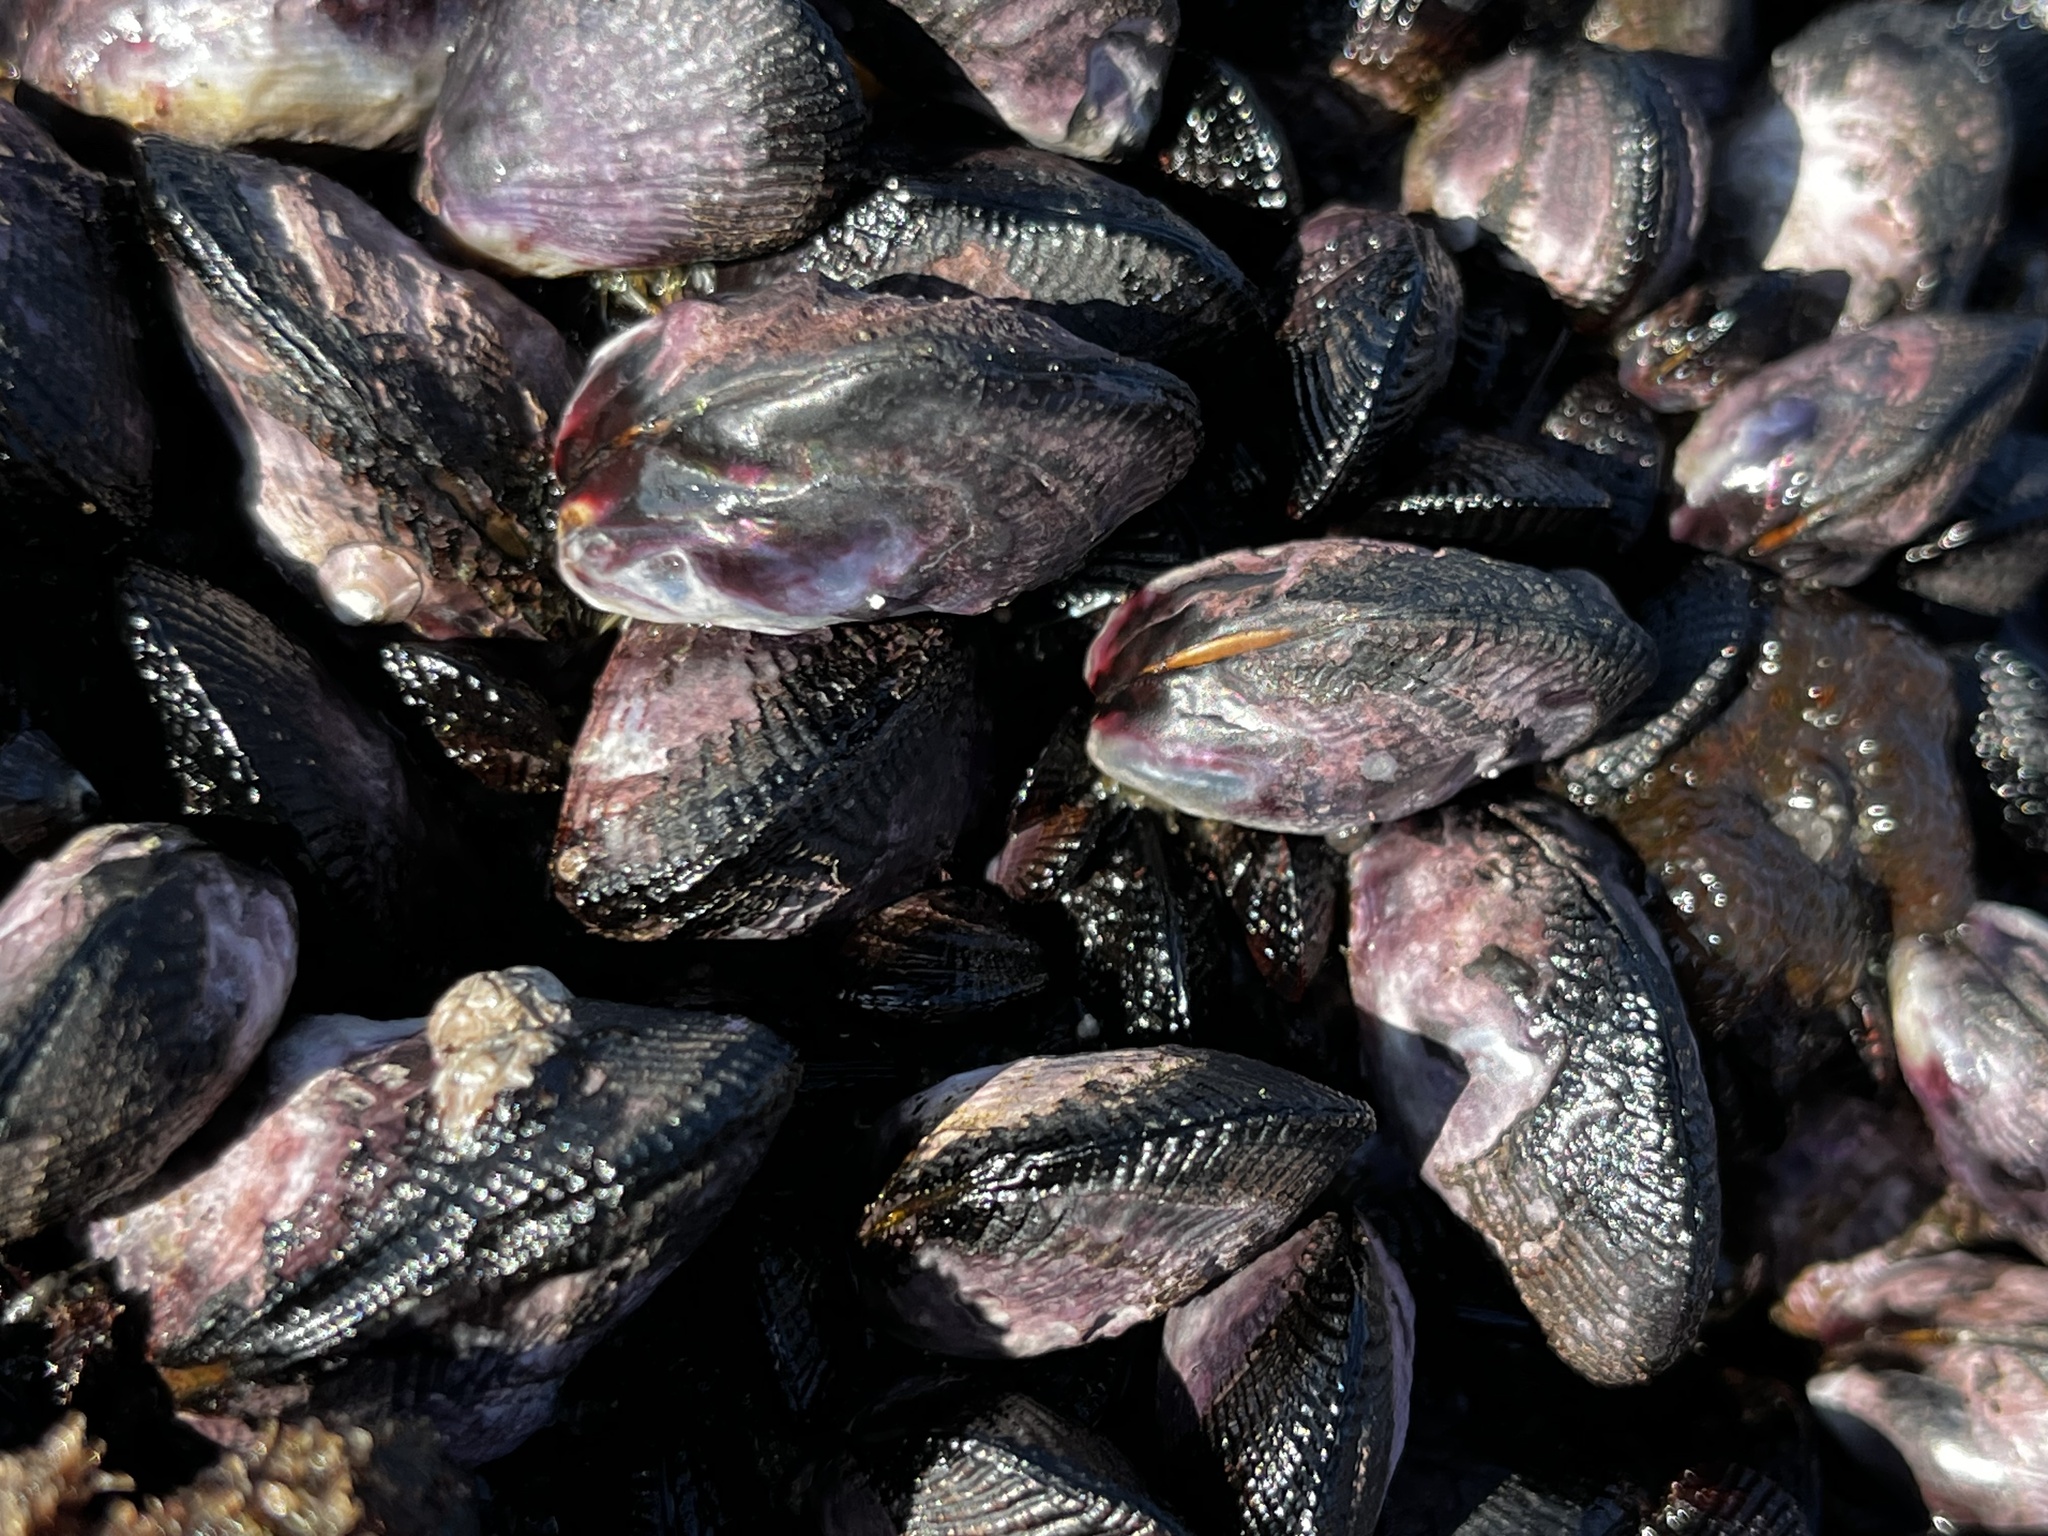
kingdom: Animalia
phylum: Mollusca
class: Bivalvia
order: Mytilida
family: Mytilidae
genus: Perumytilus
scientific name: Perumytilus purpuratus
